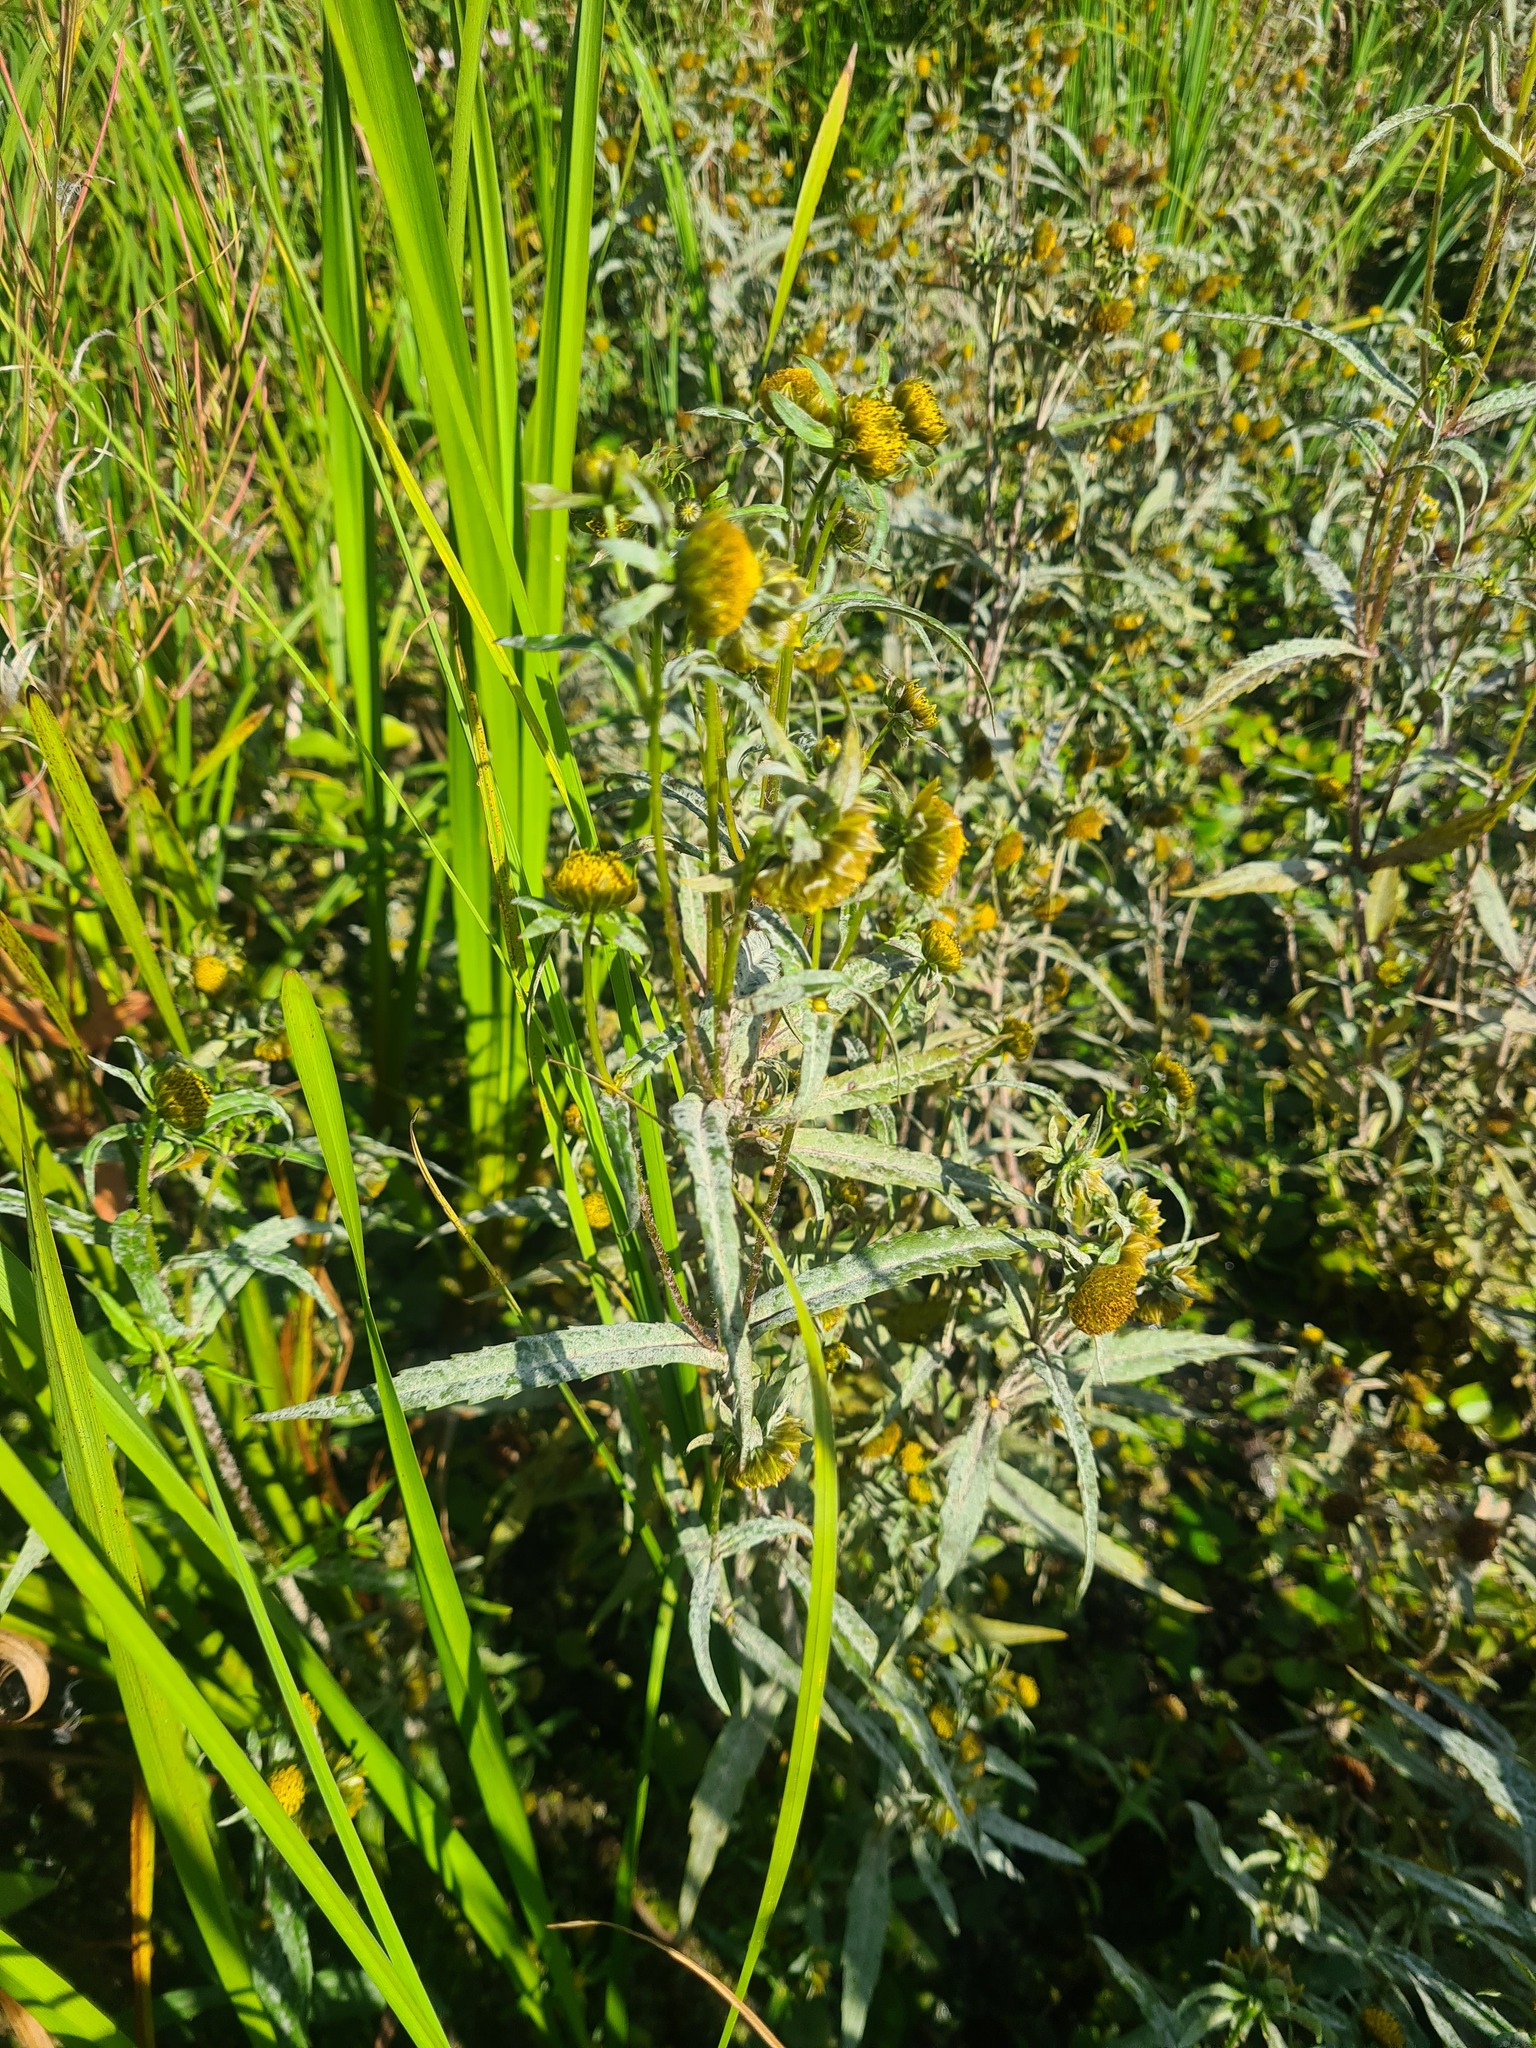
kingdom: Plantae
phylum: Tracheophyta
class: Magnoliopsida
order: Asterales
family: Asteraceae
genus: Bidens
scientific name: Bidens cernua
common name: Nodding bur-marigold
